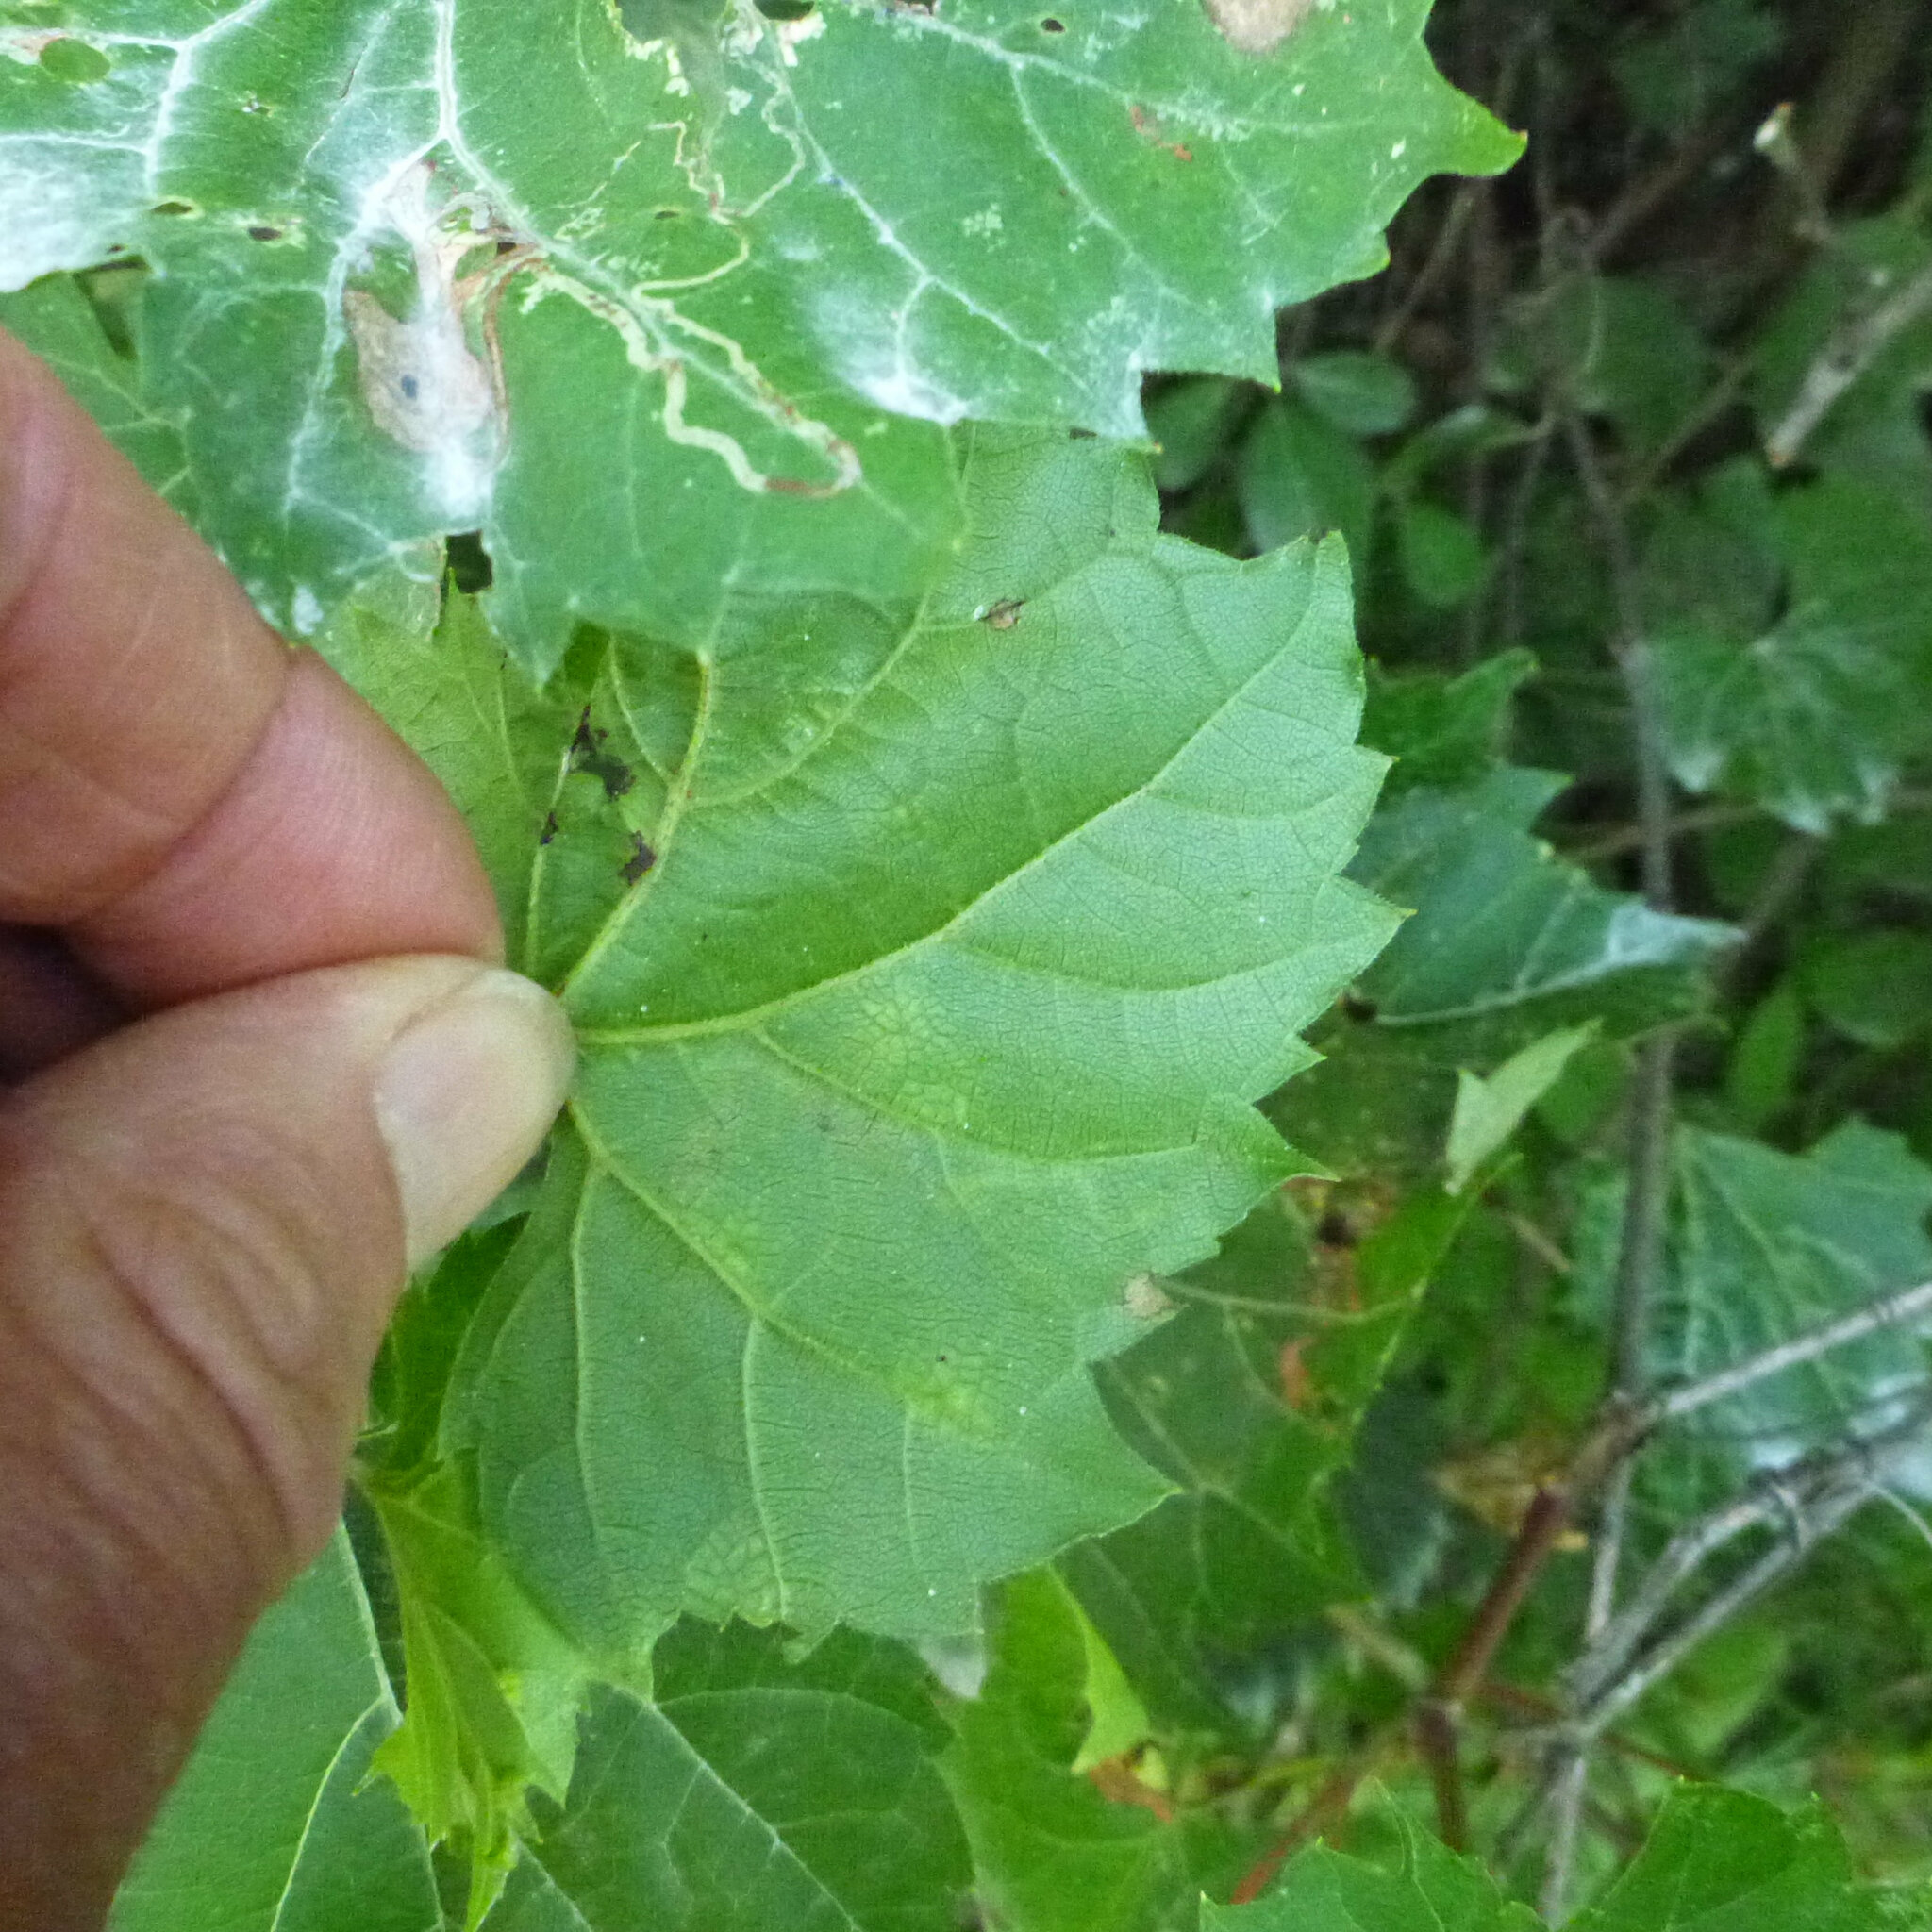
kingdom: Animalia
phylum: Arthropoda
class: Insecta
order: Lepidoptera
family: Gracillariidae
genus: Phyllocnistis
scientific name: Phyllocnistis vitifoliella
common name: Grape leaf-miner moth
